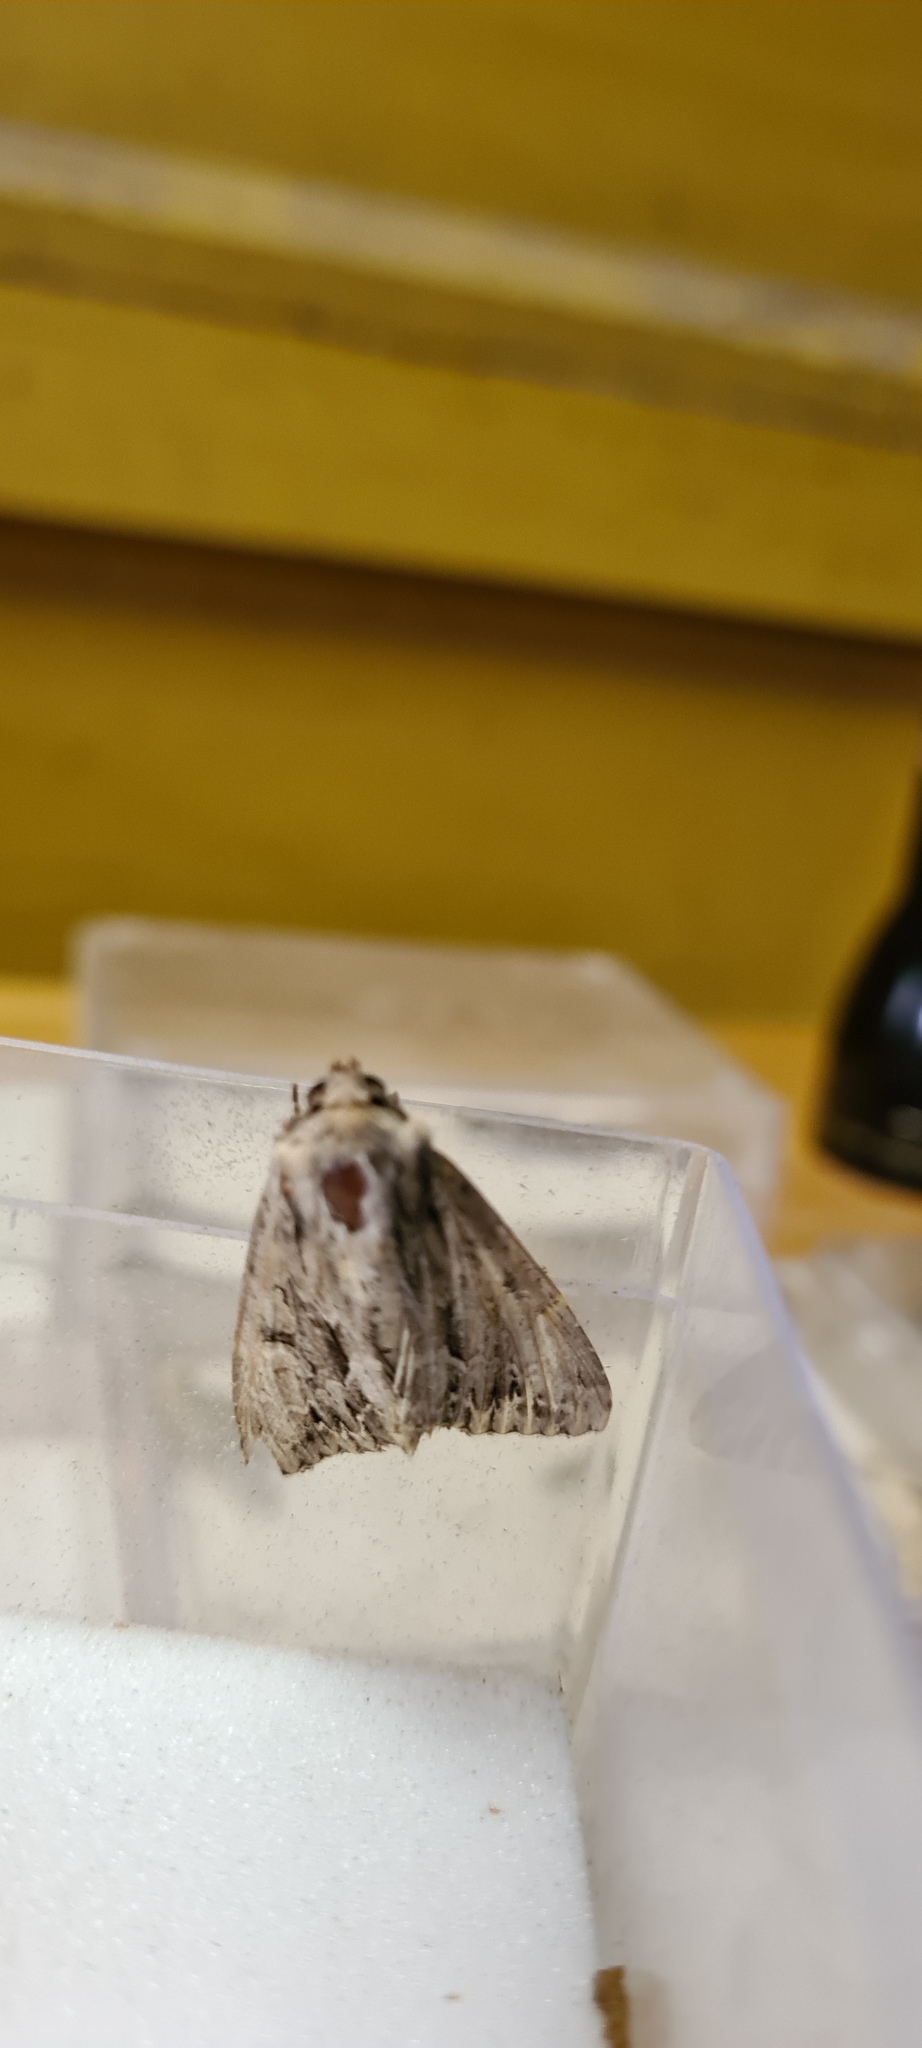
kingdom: Animalia
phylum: Arthropoda
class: Insecta
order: Lepidoptera
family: Noctuidae
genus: Apamea
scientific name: Apamea monoglypha
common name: Dark arches
